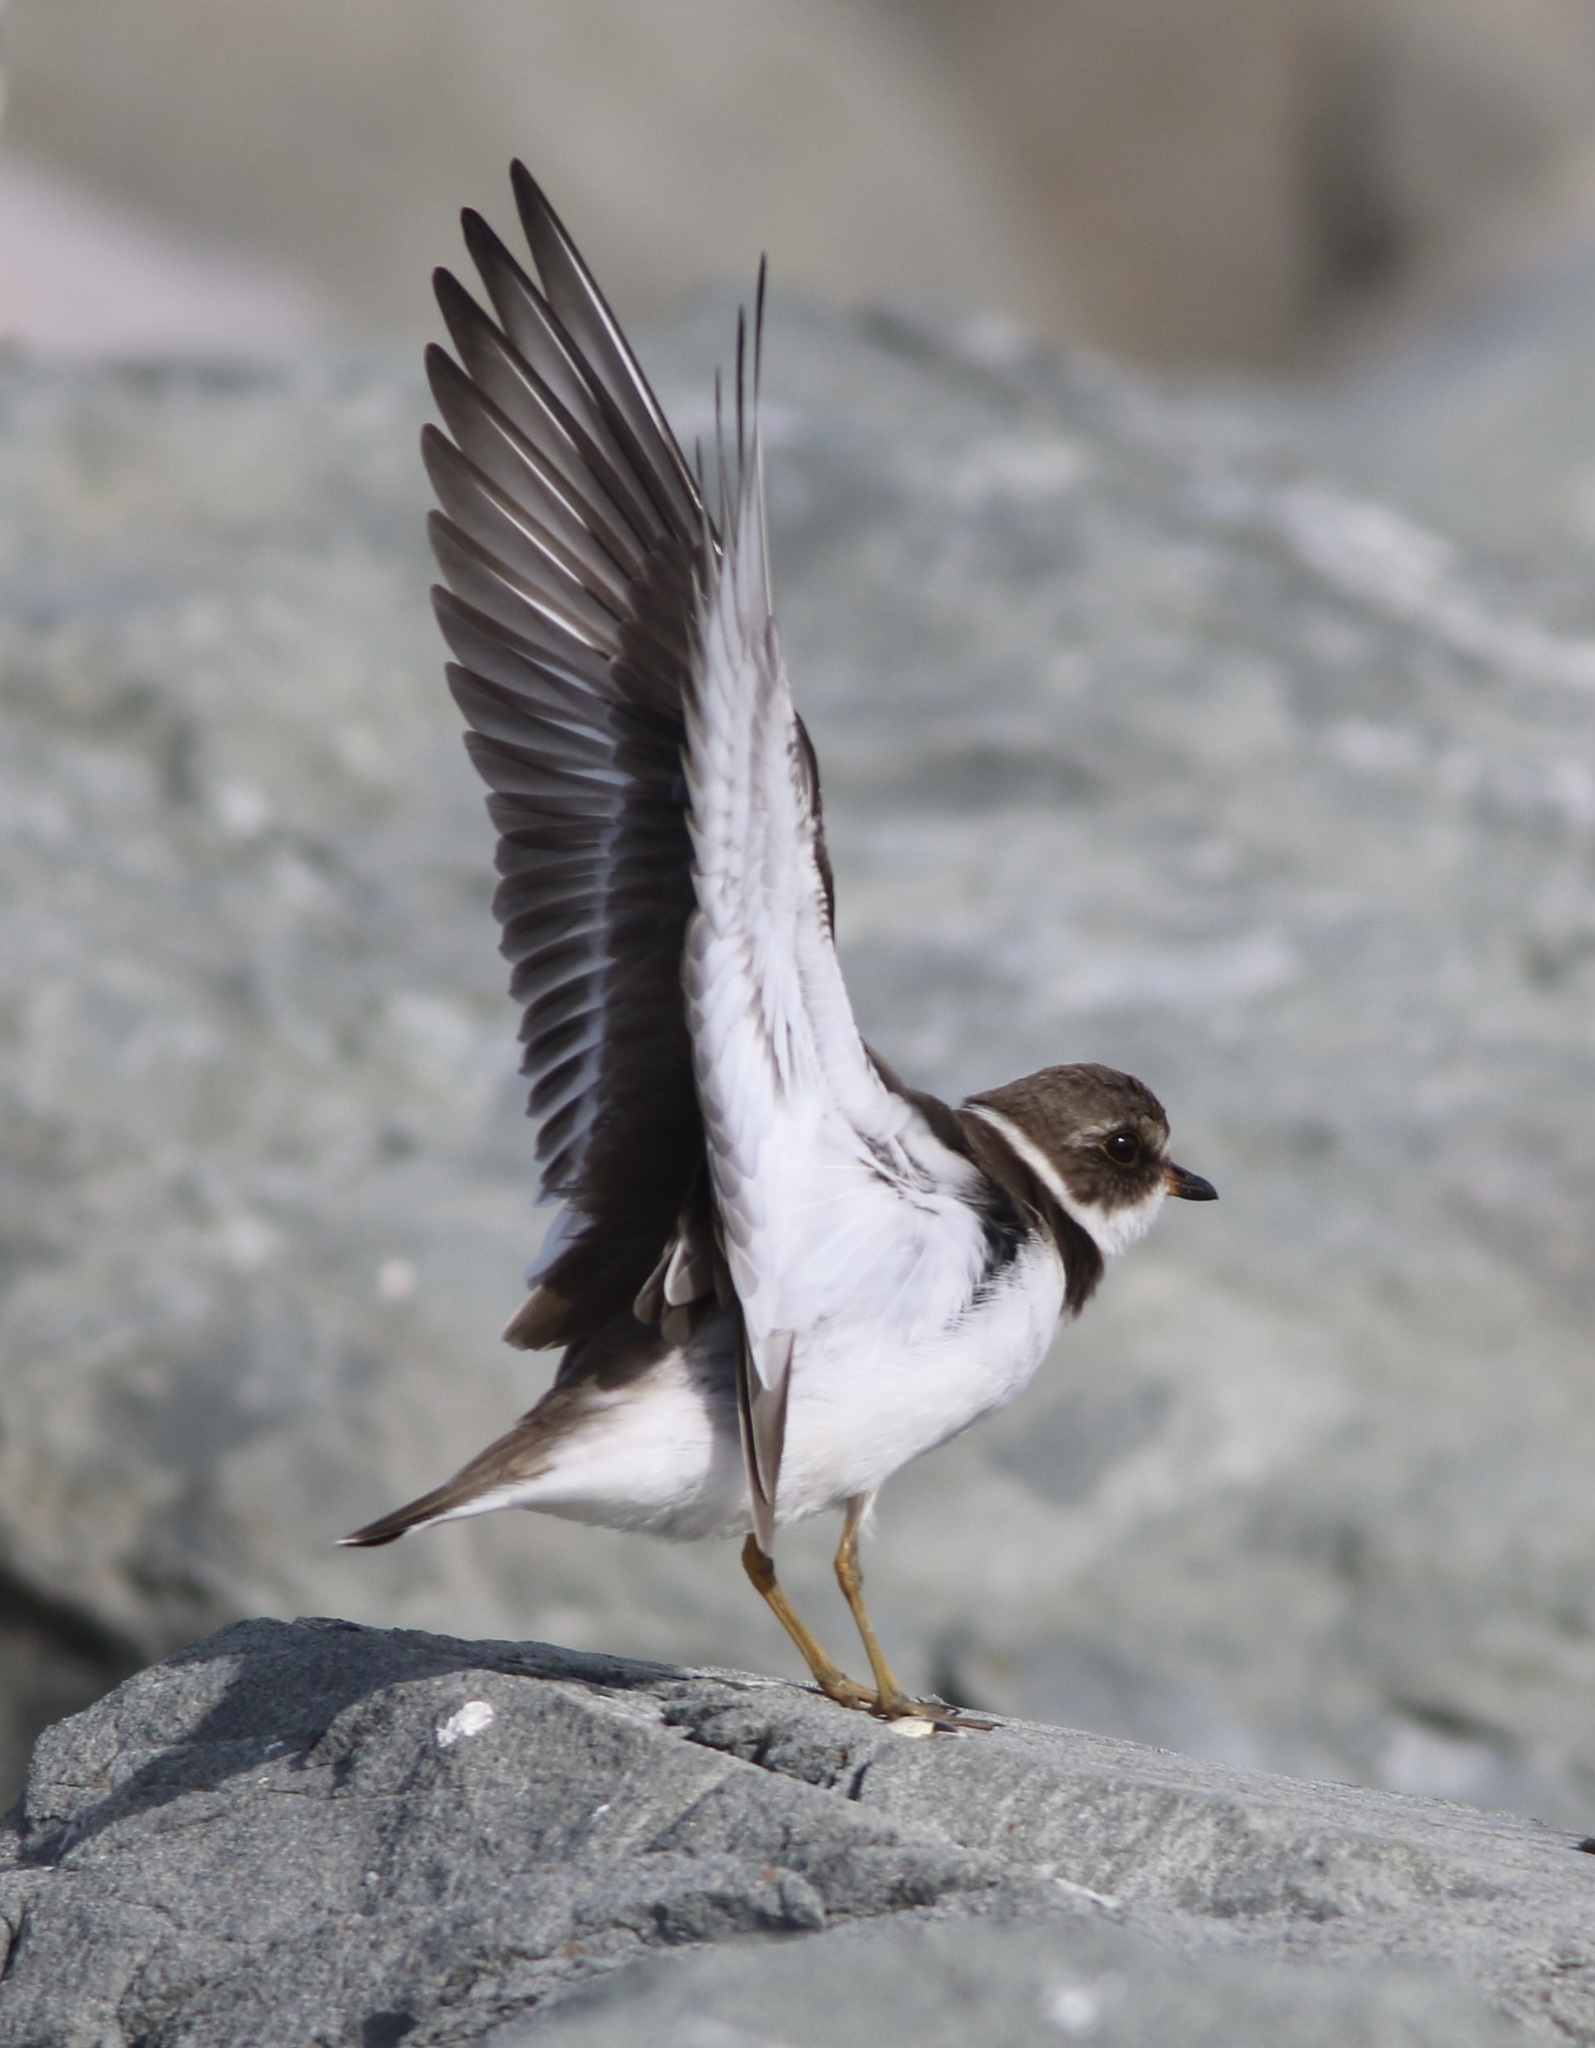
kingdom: Animalia
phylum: Chordata
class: Aves
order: Charadriiformes
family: Charadriidae
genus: Charadrius
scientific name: Charadrius semipalmatus
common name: Semipalmated plover
